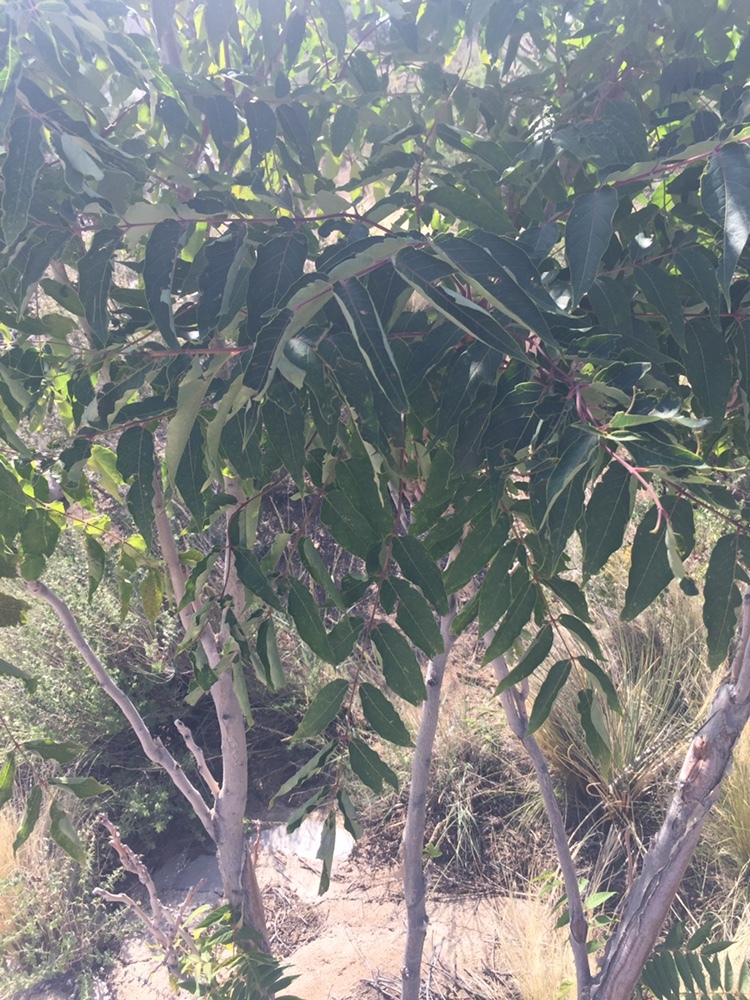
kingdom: Plantae
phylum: Tracheophyta
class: Magnoliopsida
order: Sapindales
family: Simaroubaceae
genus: Ailanthus
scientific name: Ailanthus altissima
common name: Tree-of-heaven
